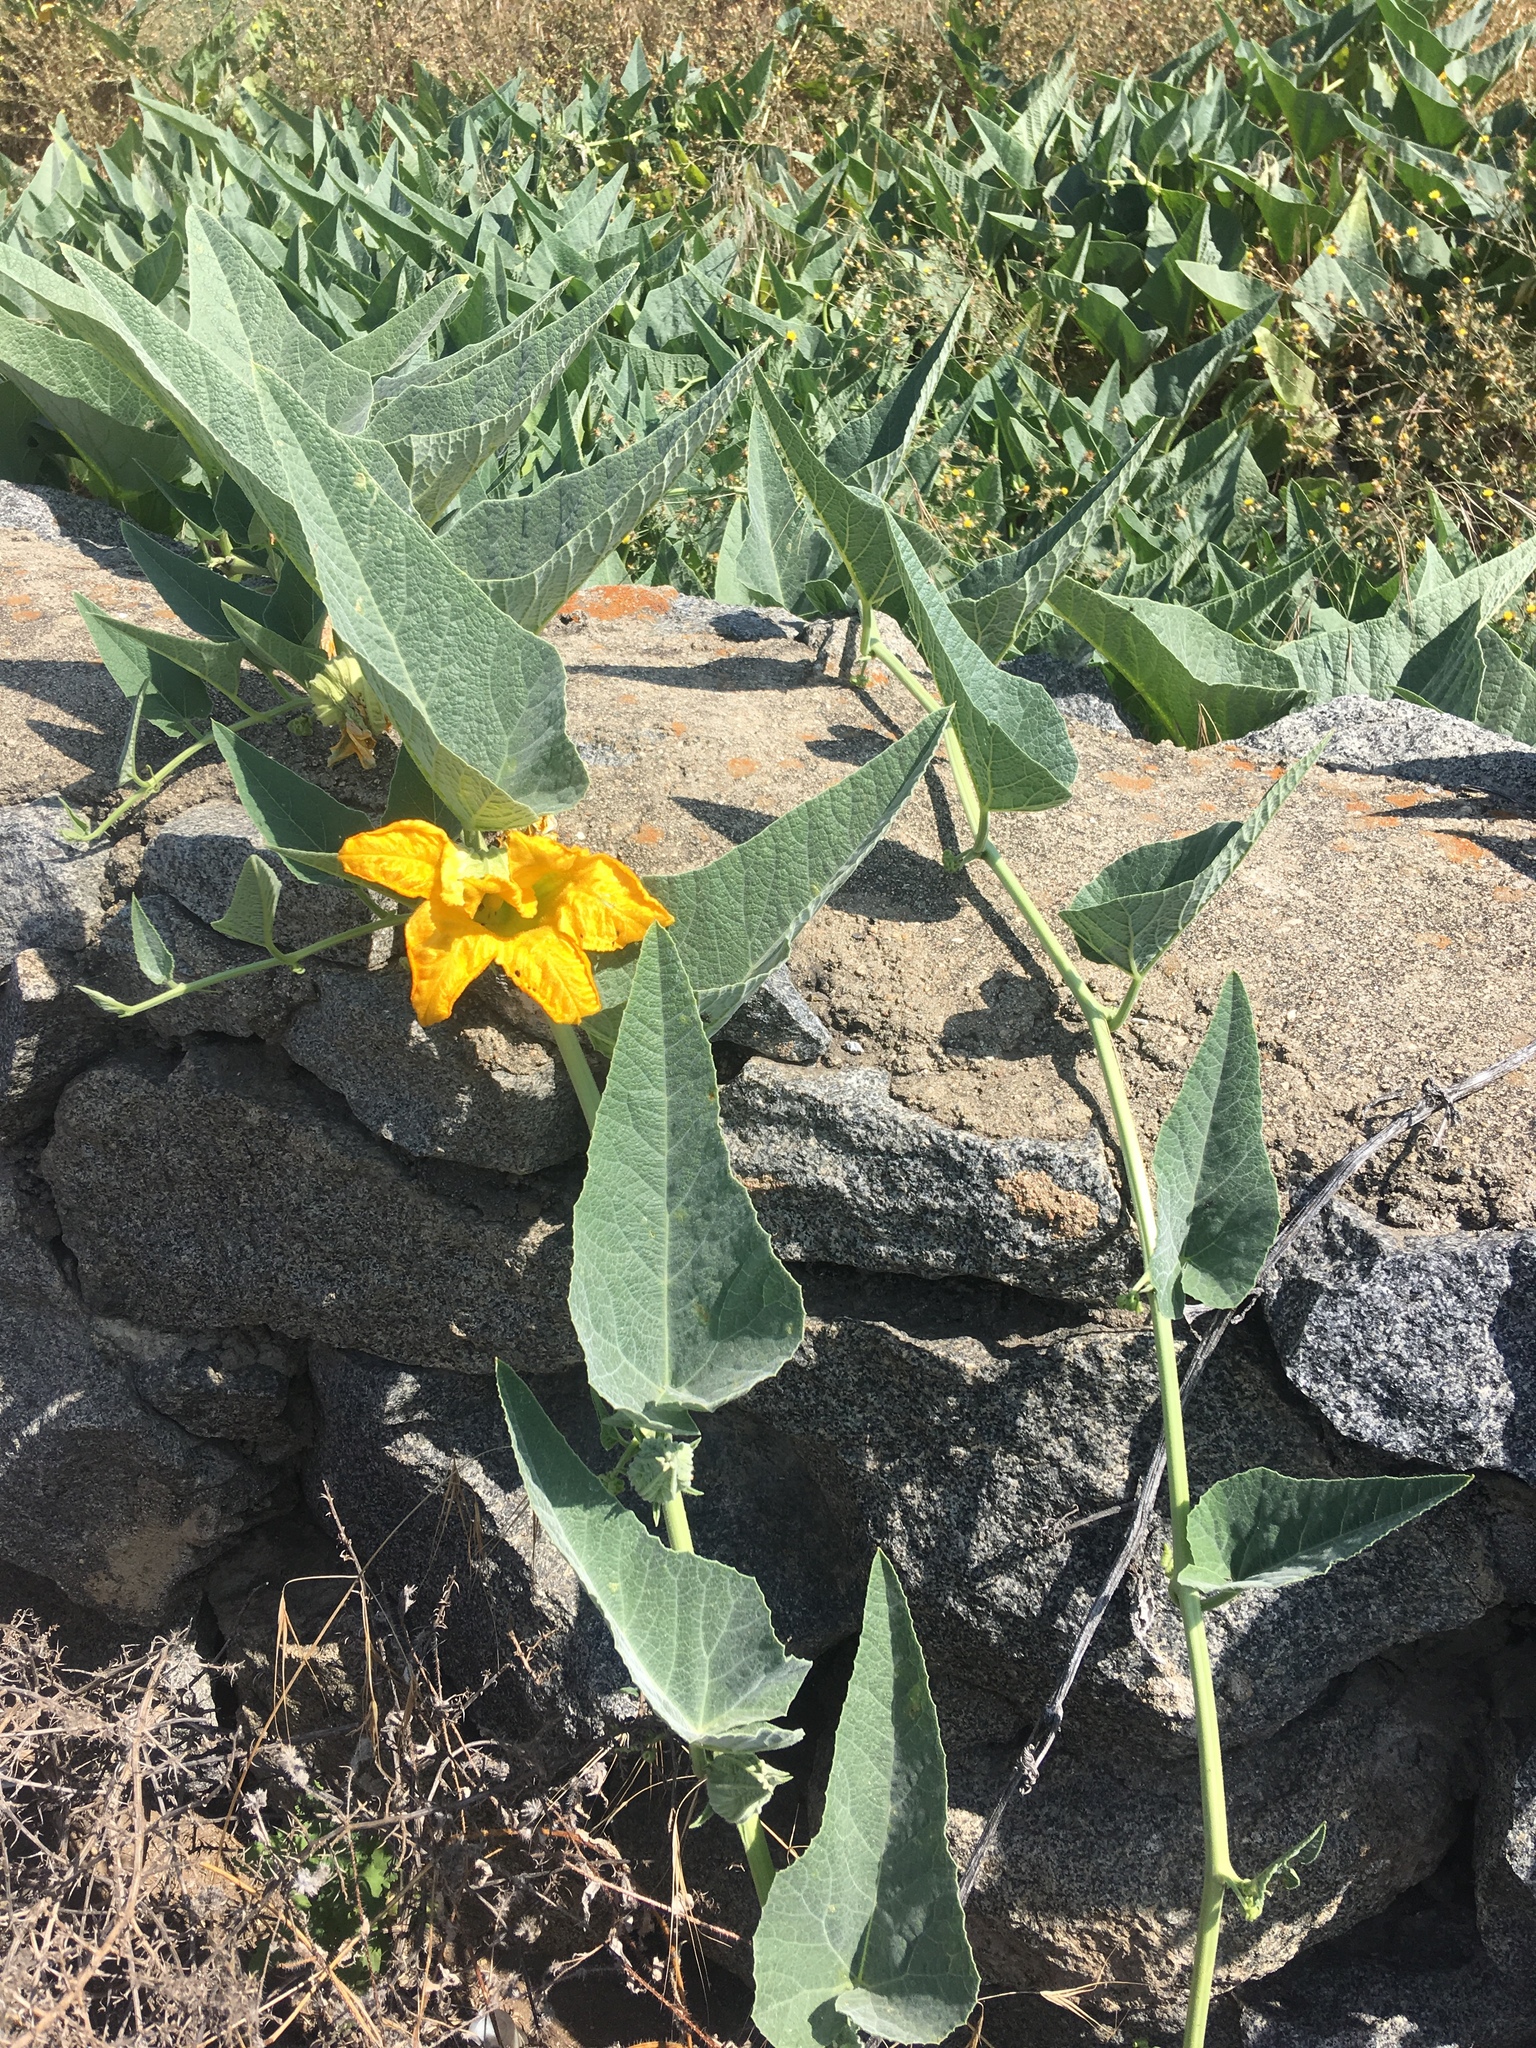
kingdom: Plantae
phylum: Tracheophyta
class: Magnoliopsida
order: Cucurbitales
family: Cucurbitaceae
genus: Cucurbita
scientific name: Cucurbita foetidissima
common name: Buffalo gourd
